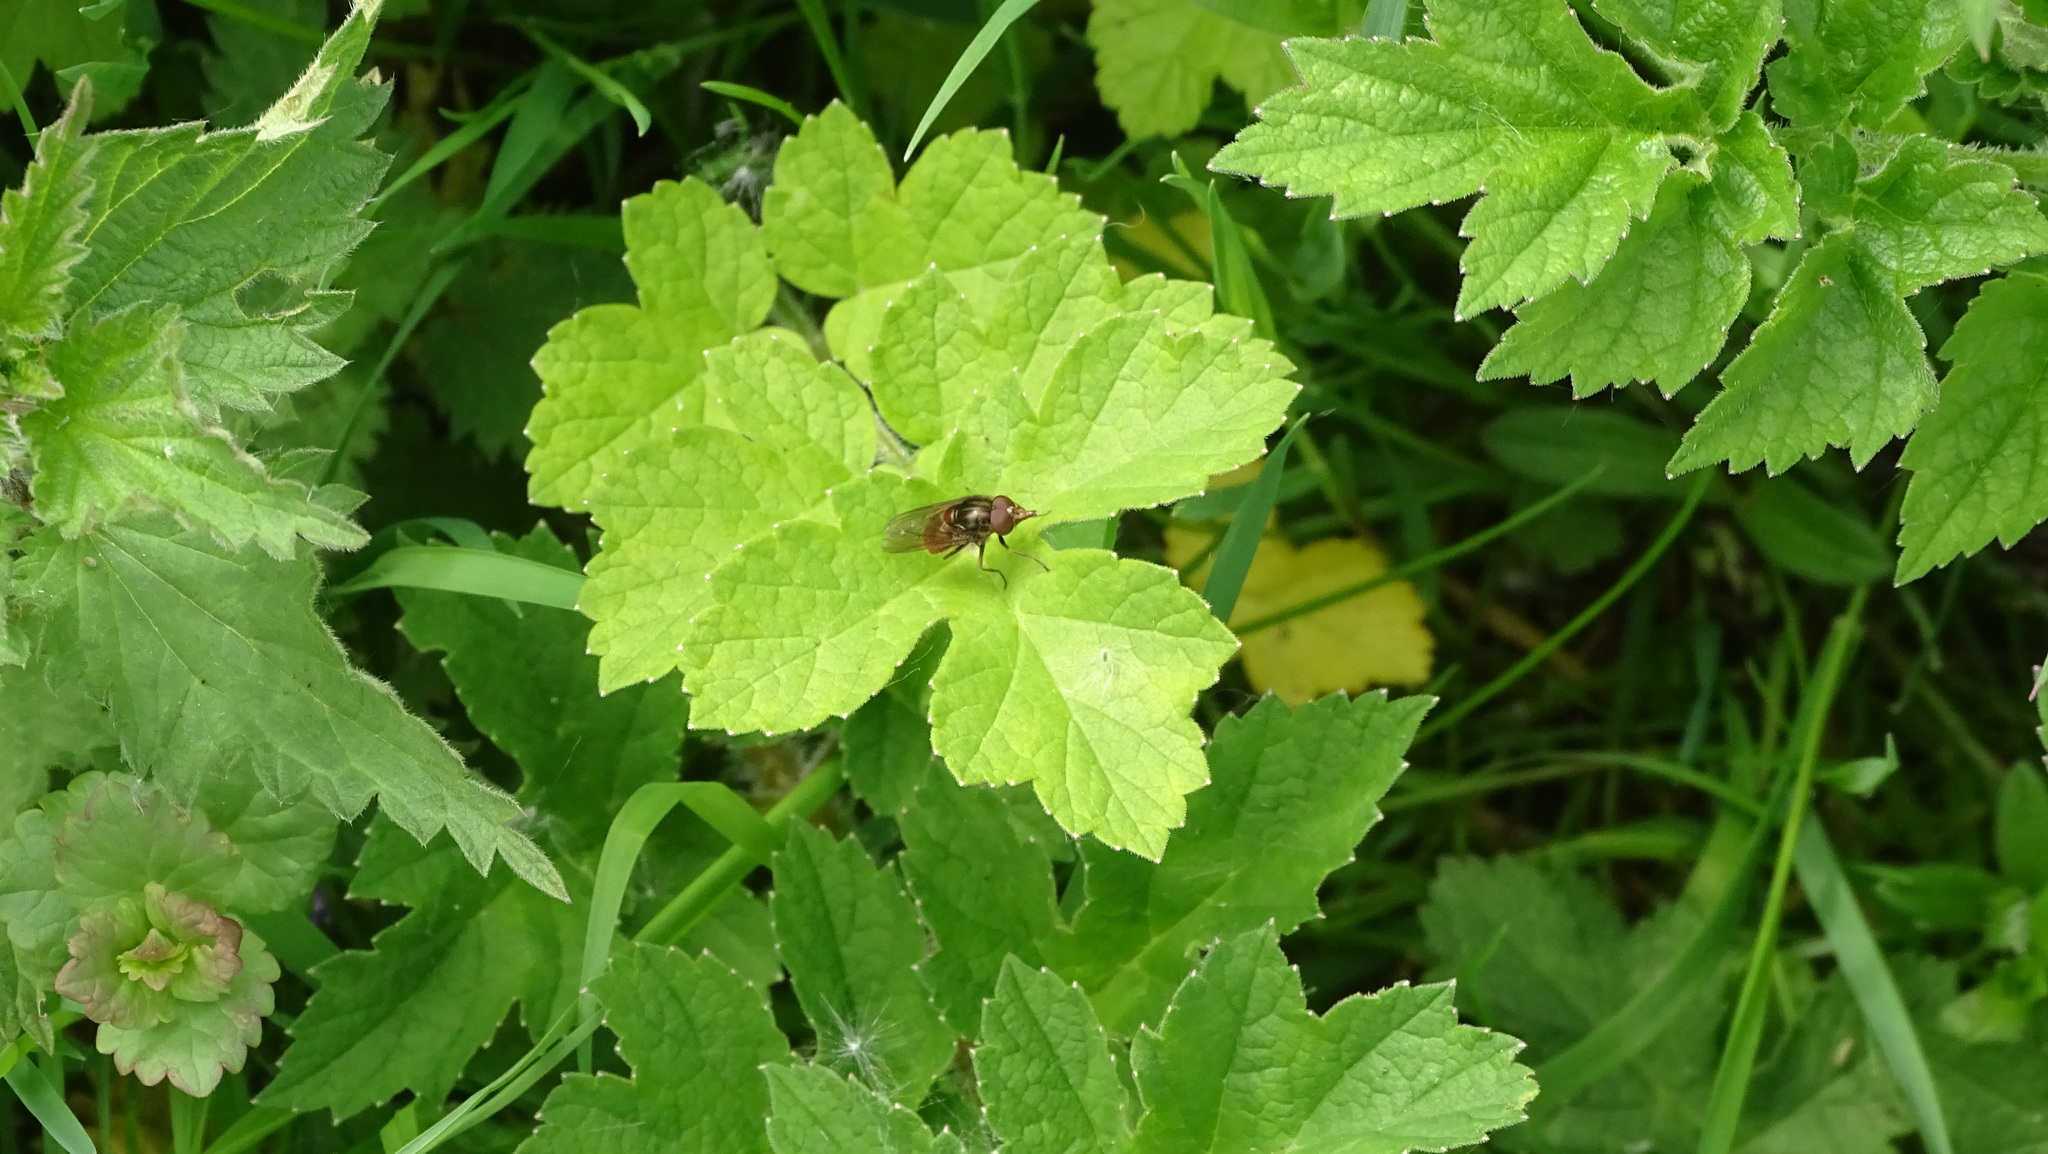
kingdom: Animalia
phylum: Arthropoda
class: Insecta
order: Diptera
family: Syrphidae
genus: Rhingia
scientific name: Rhingia campestris
